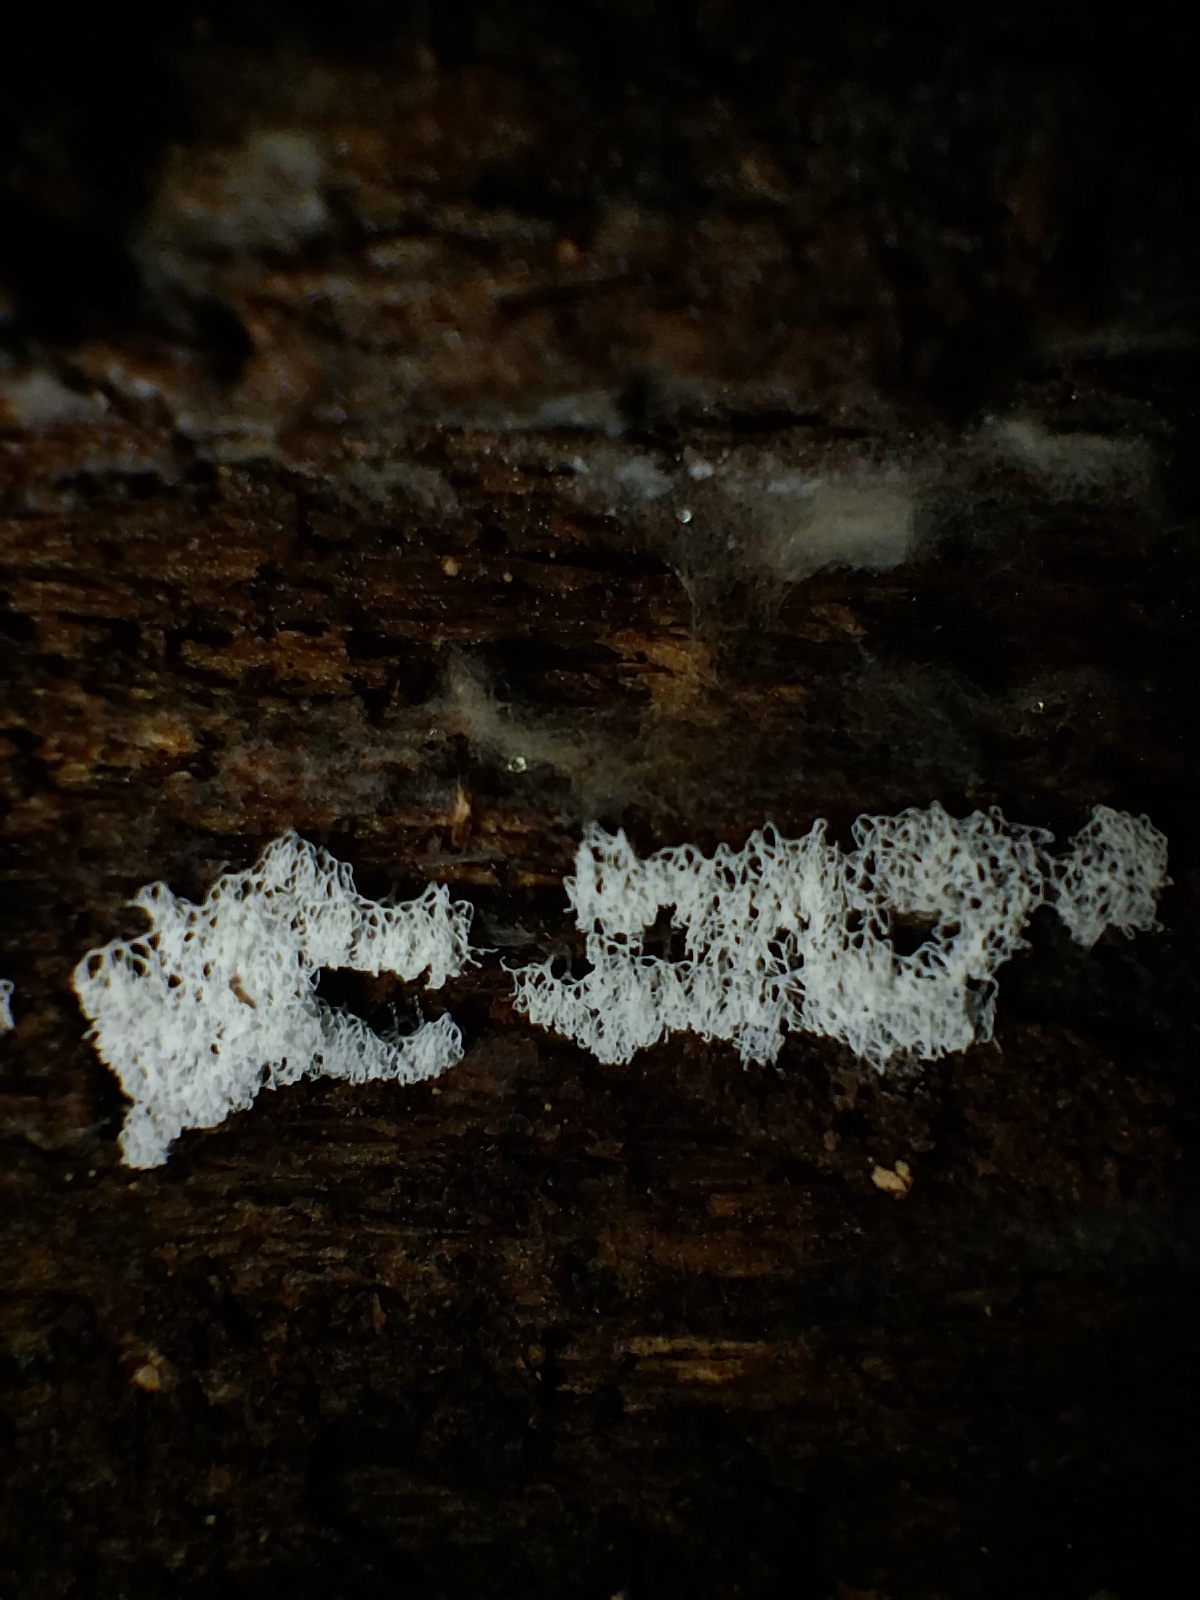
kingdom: Protozoa
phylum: Mycetozoa
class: Protosteliomycetes
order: Ceratiomyxales
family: Ceratiomyxaceae
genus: Ceratiomyxa
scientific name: Ceratiomyxa fruticulosa
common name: Honeycomb coral slime mold
